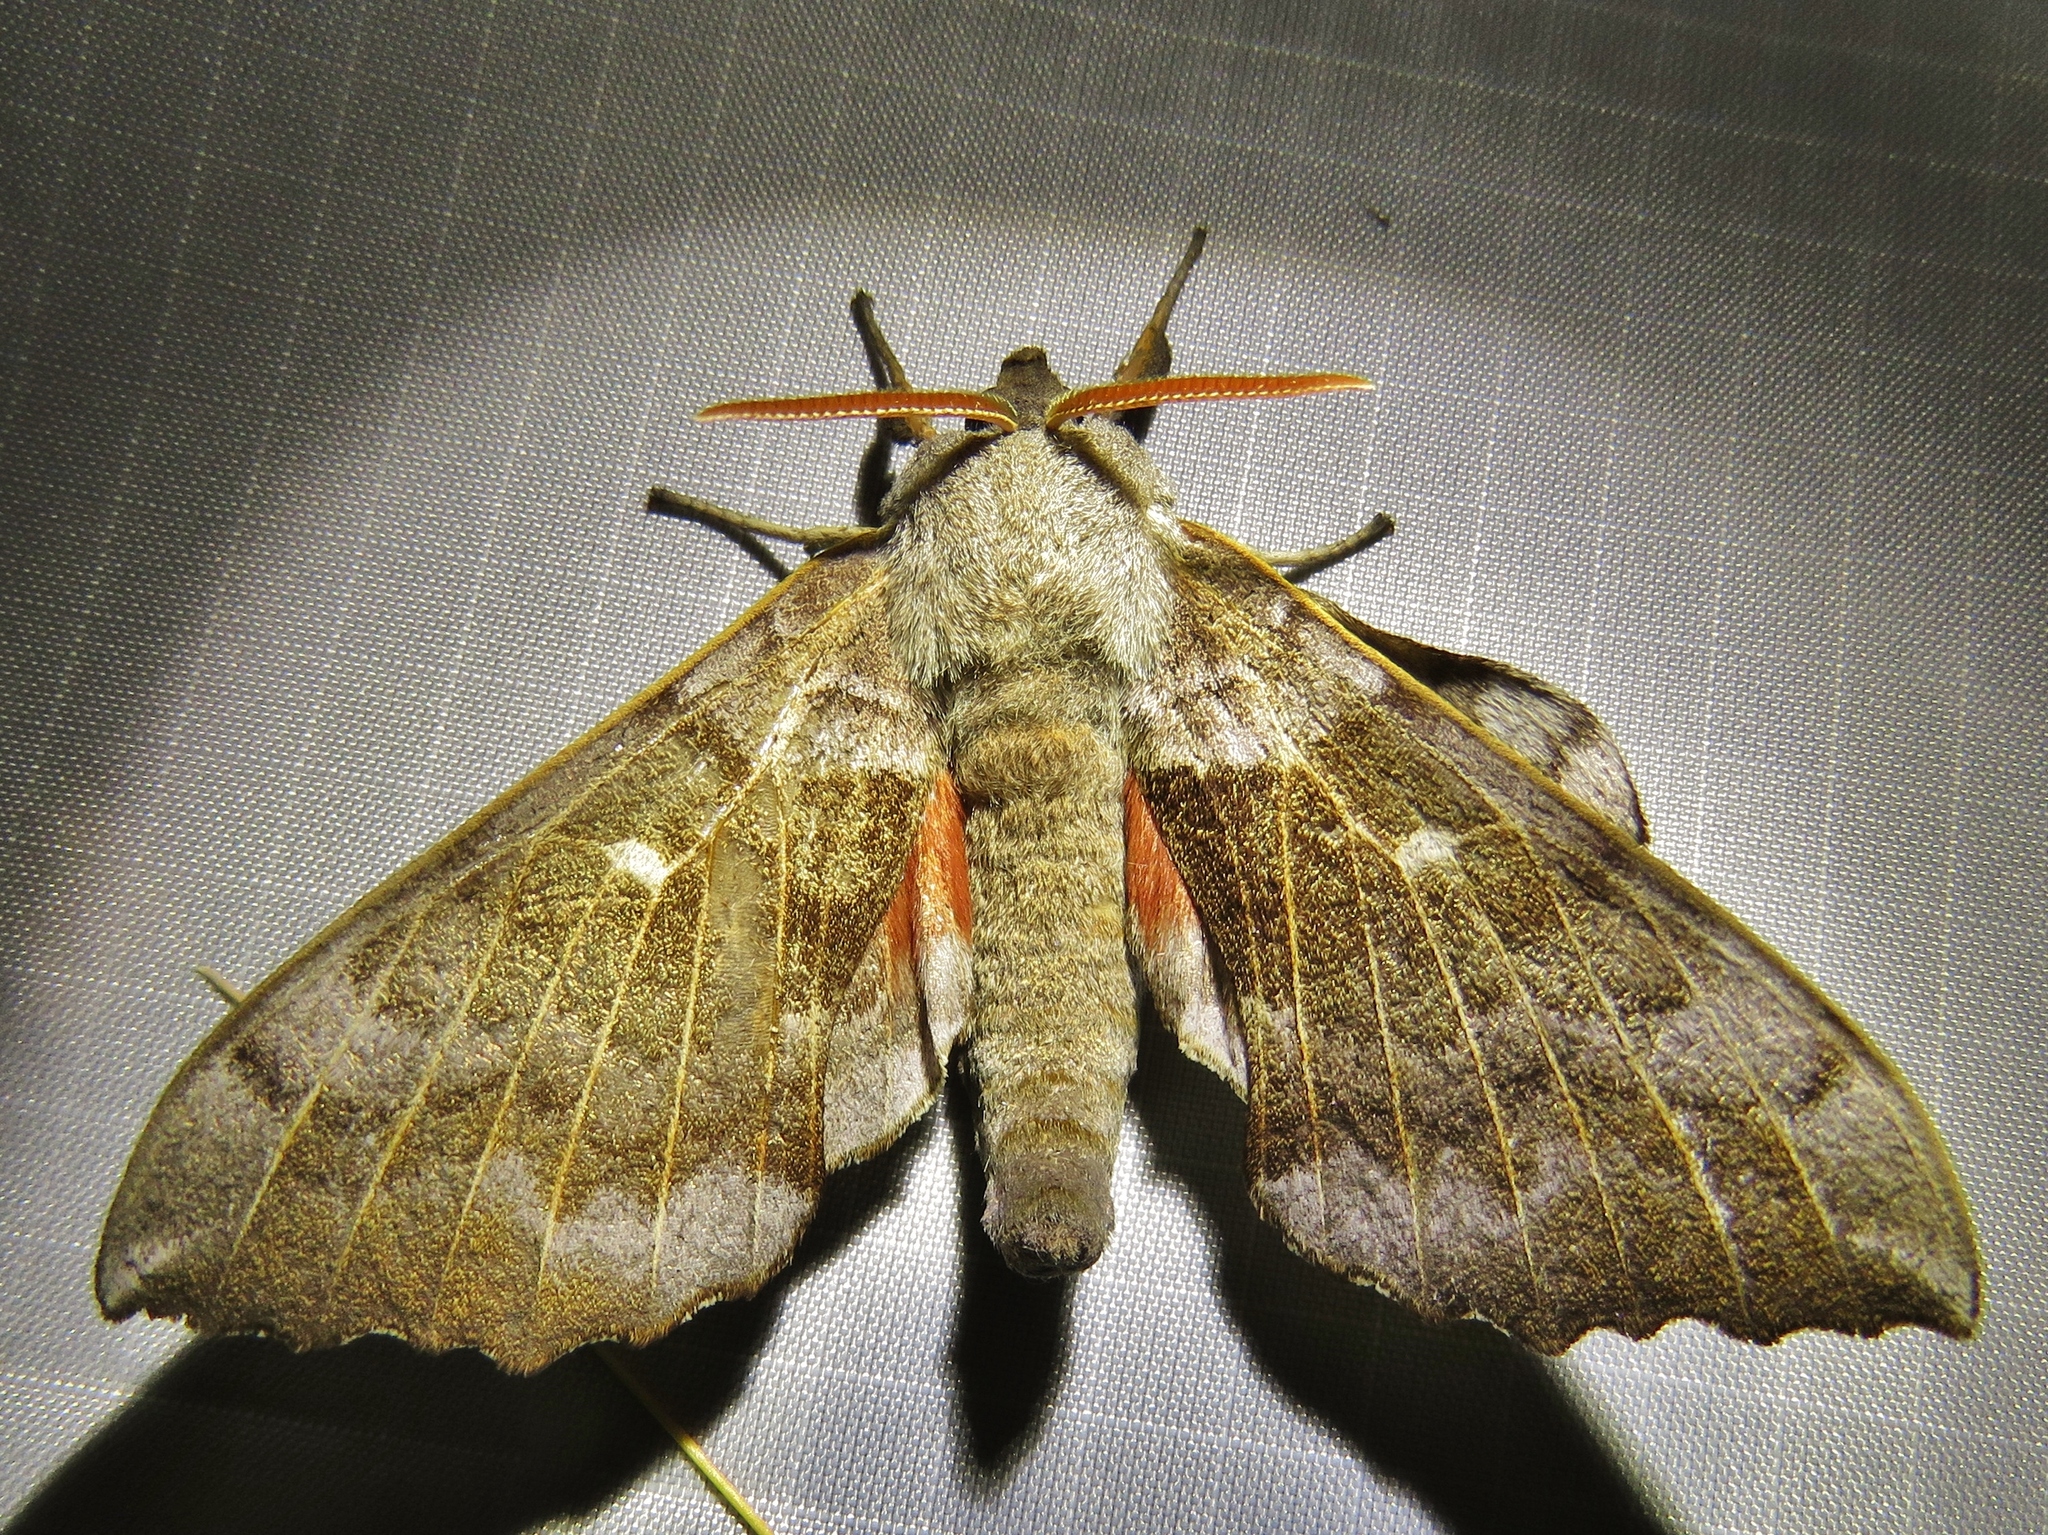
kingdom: Animalia
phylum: Arthropoda
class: Insecta
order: Lepidoptera
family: Sphingidae
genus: Laothoe
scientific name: Laothoe populi
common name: Poplar hawk-moth
